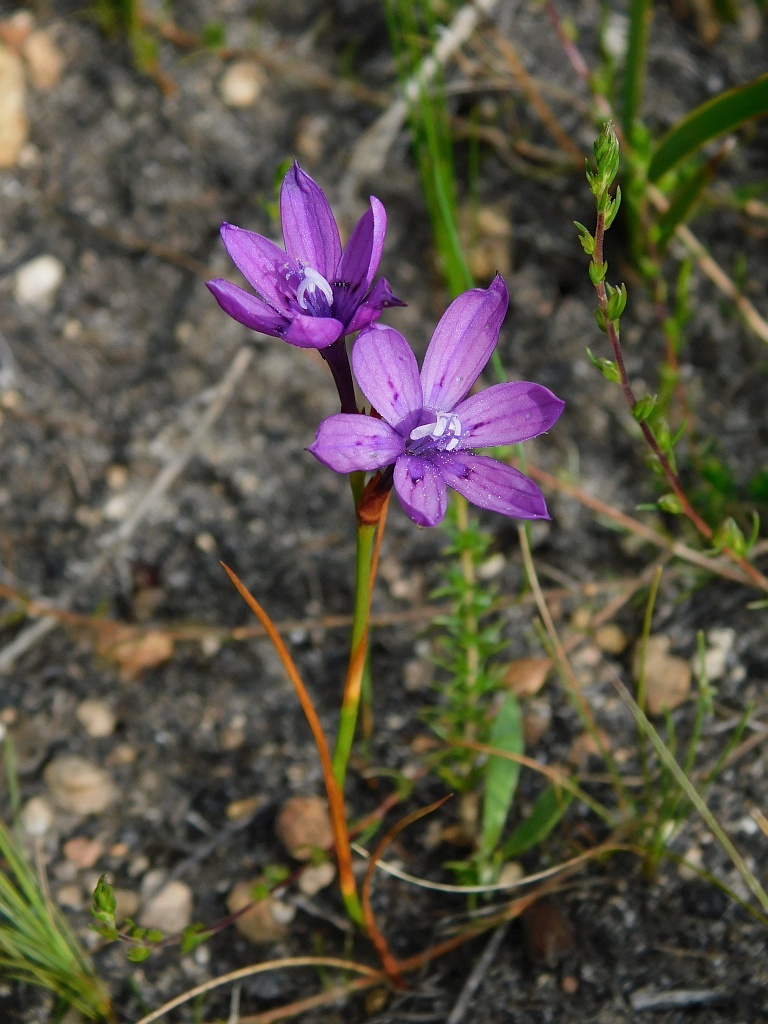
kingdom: Plantae
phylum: Tracheophyta
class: Liliopsida
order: Asparagales
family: Iridaceae
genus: Thereianthus
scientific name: Thereianthus bracteolatus
